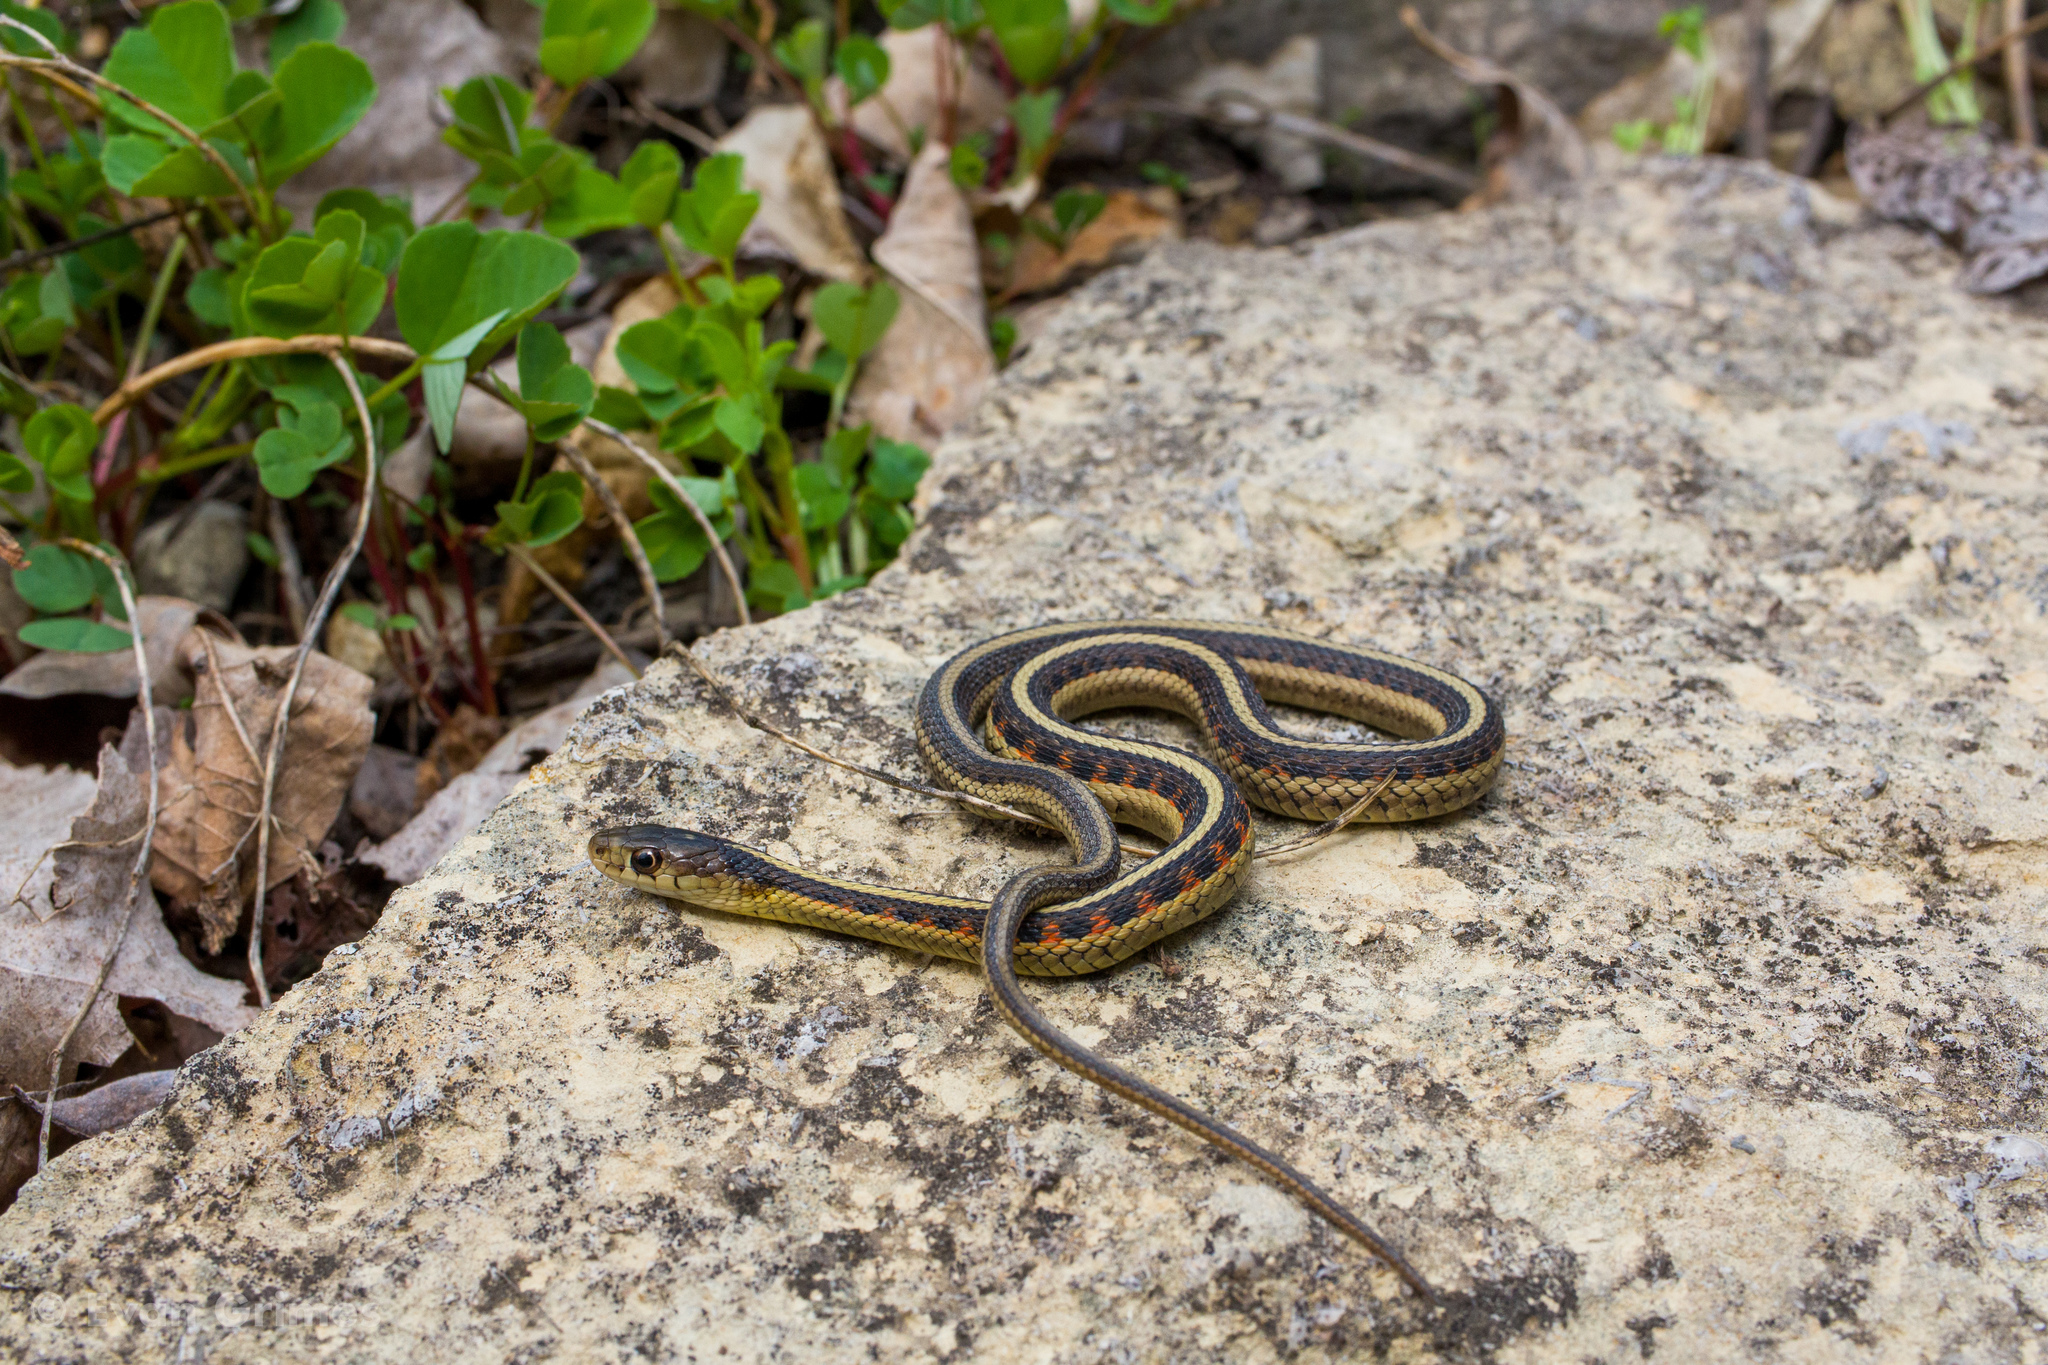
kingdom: Animalia
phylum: Chordata
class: Squamata
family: Colubridae
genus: Thamnophis
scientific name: Thamnophis sirtalis
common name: Common garter snake
